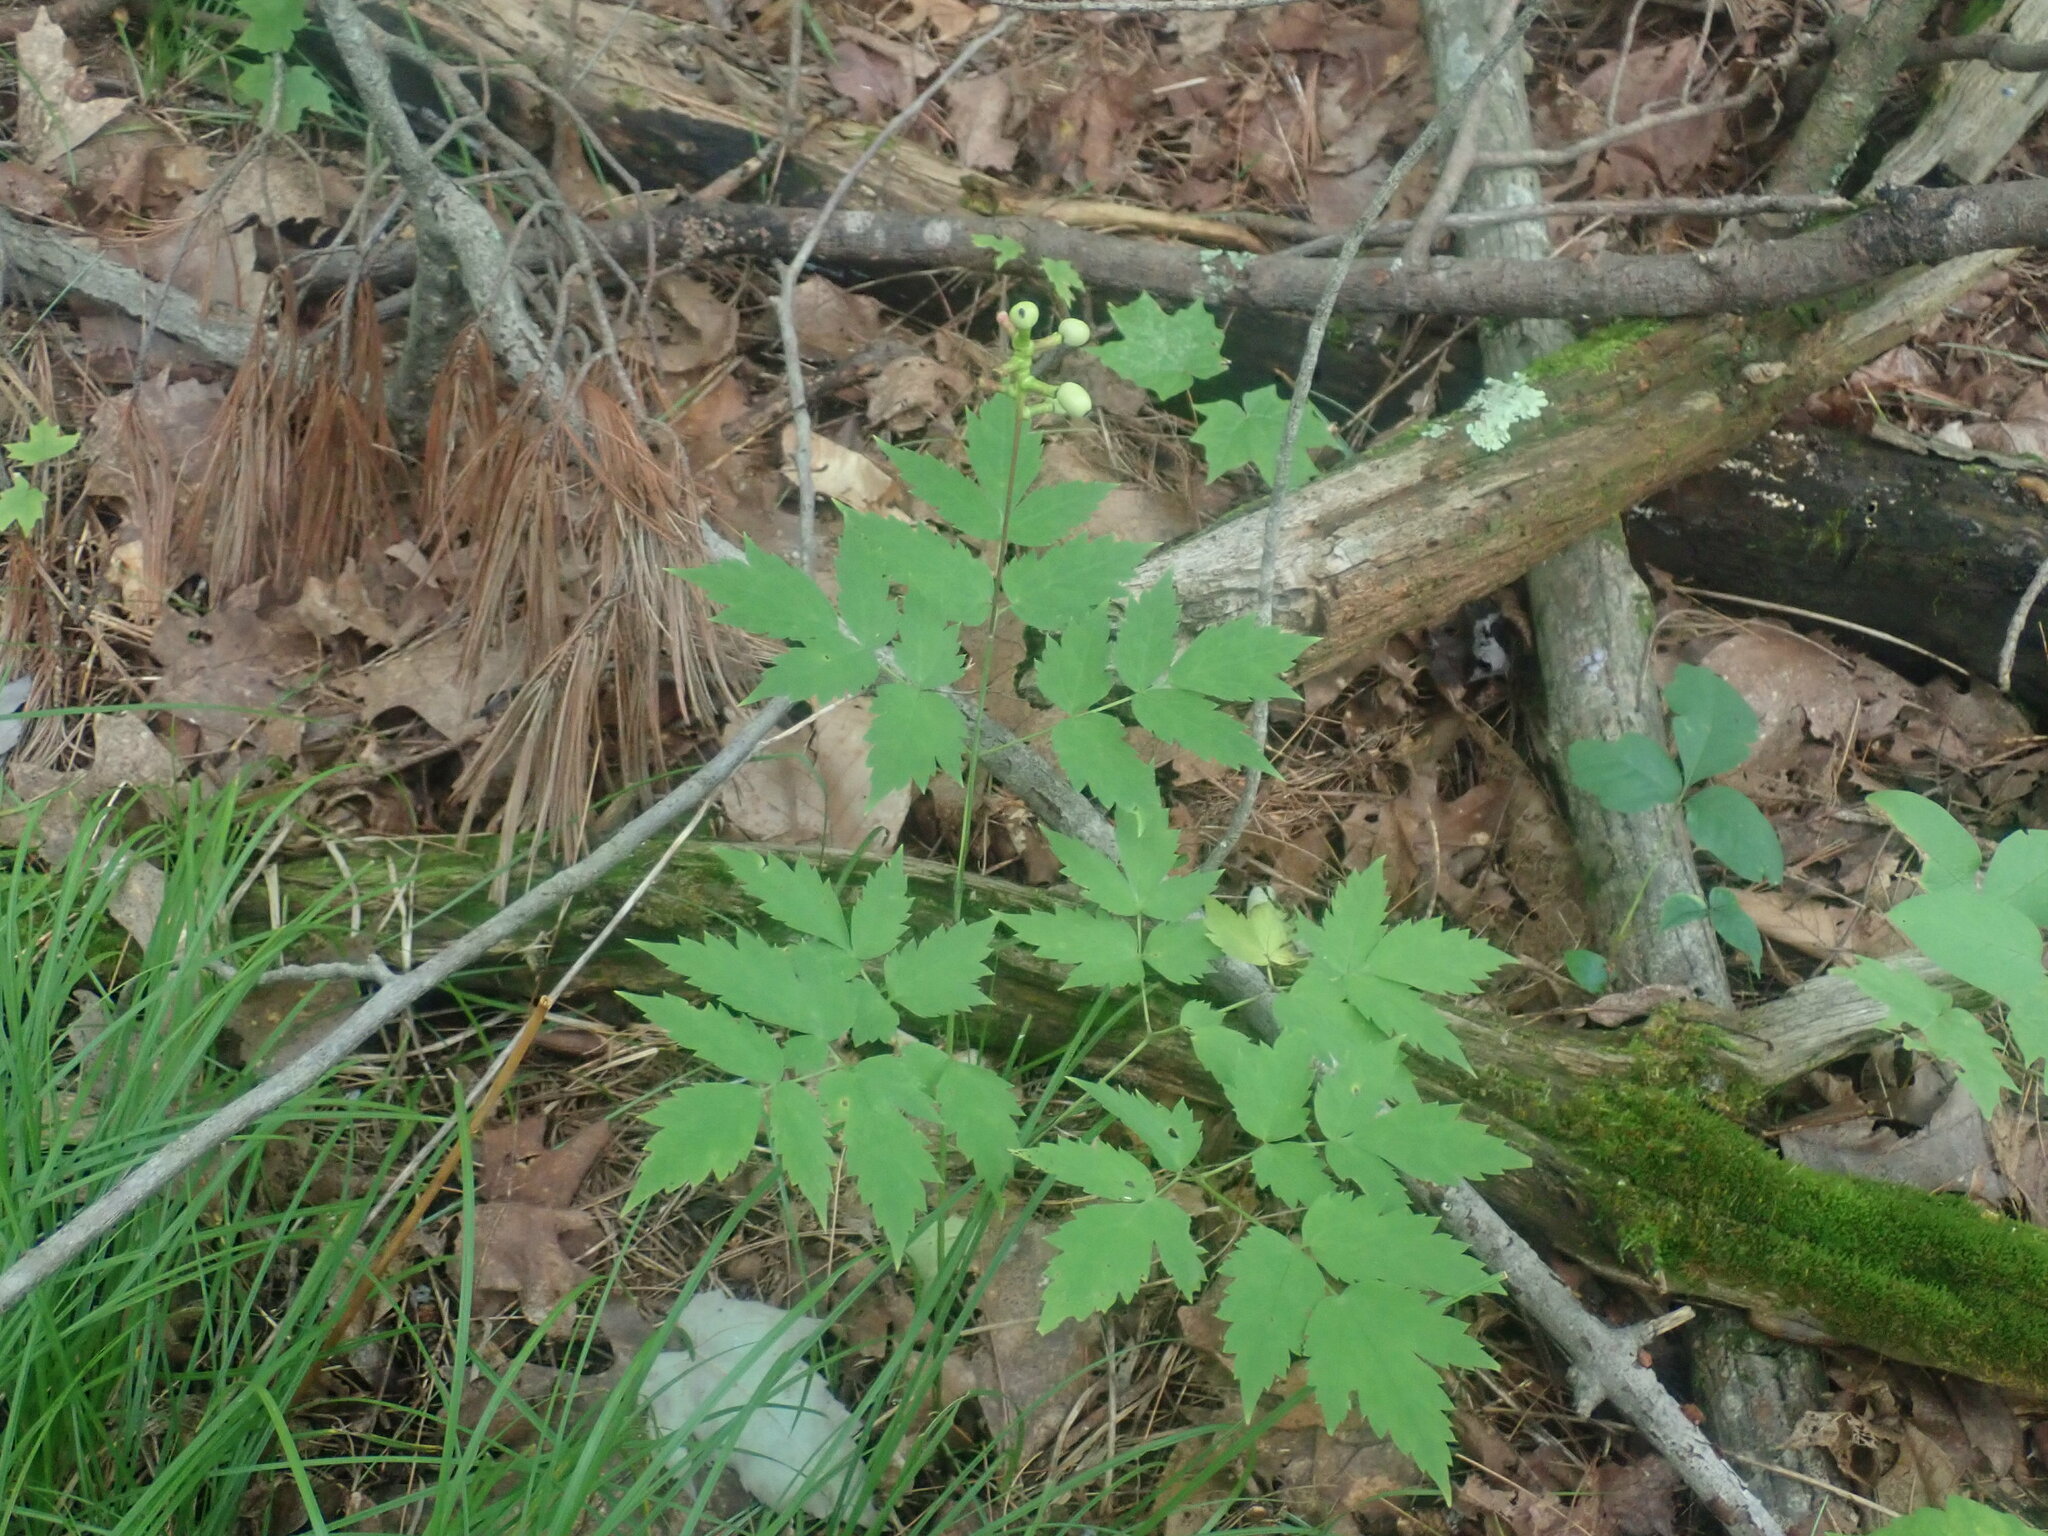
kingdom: Plantae
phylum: Tracheophyta
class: Magnoliopsida
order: Ranunculales
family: Ranunculaceae
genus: Actaea
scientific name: Actaea pachypoda
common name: Doll's-eyes
